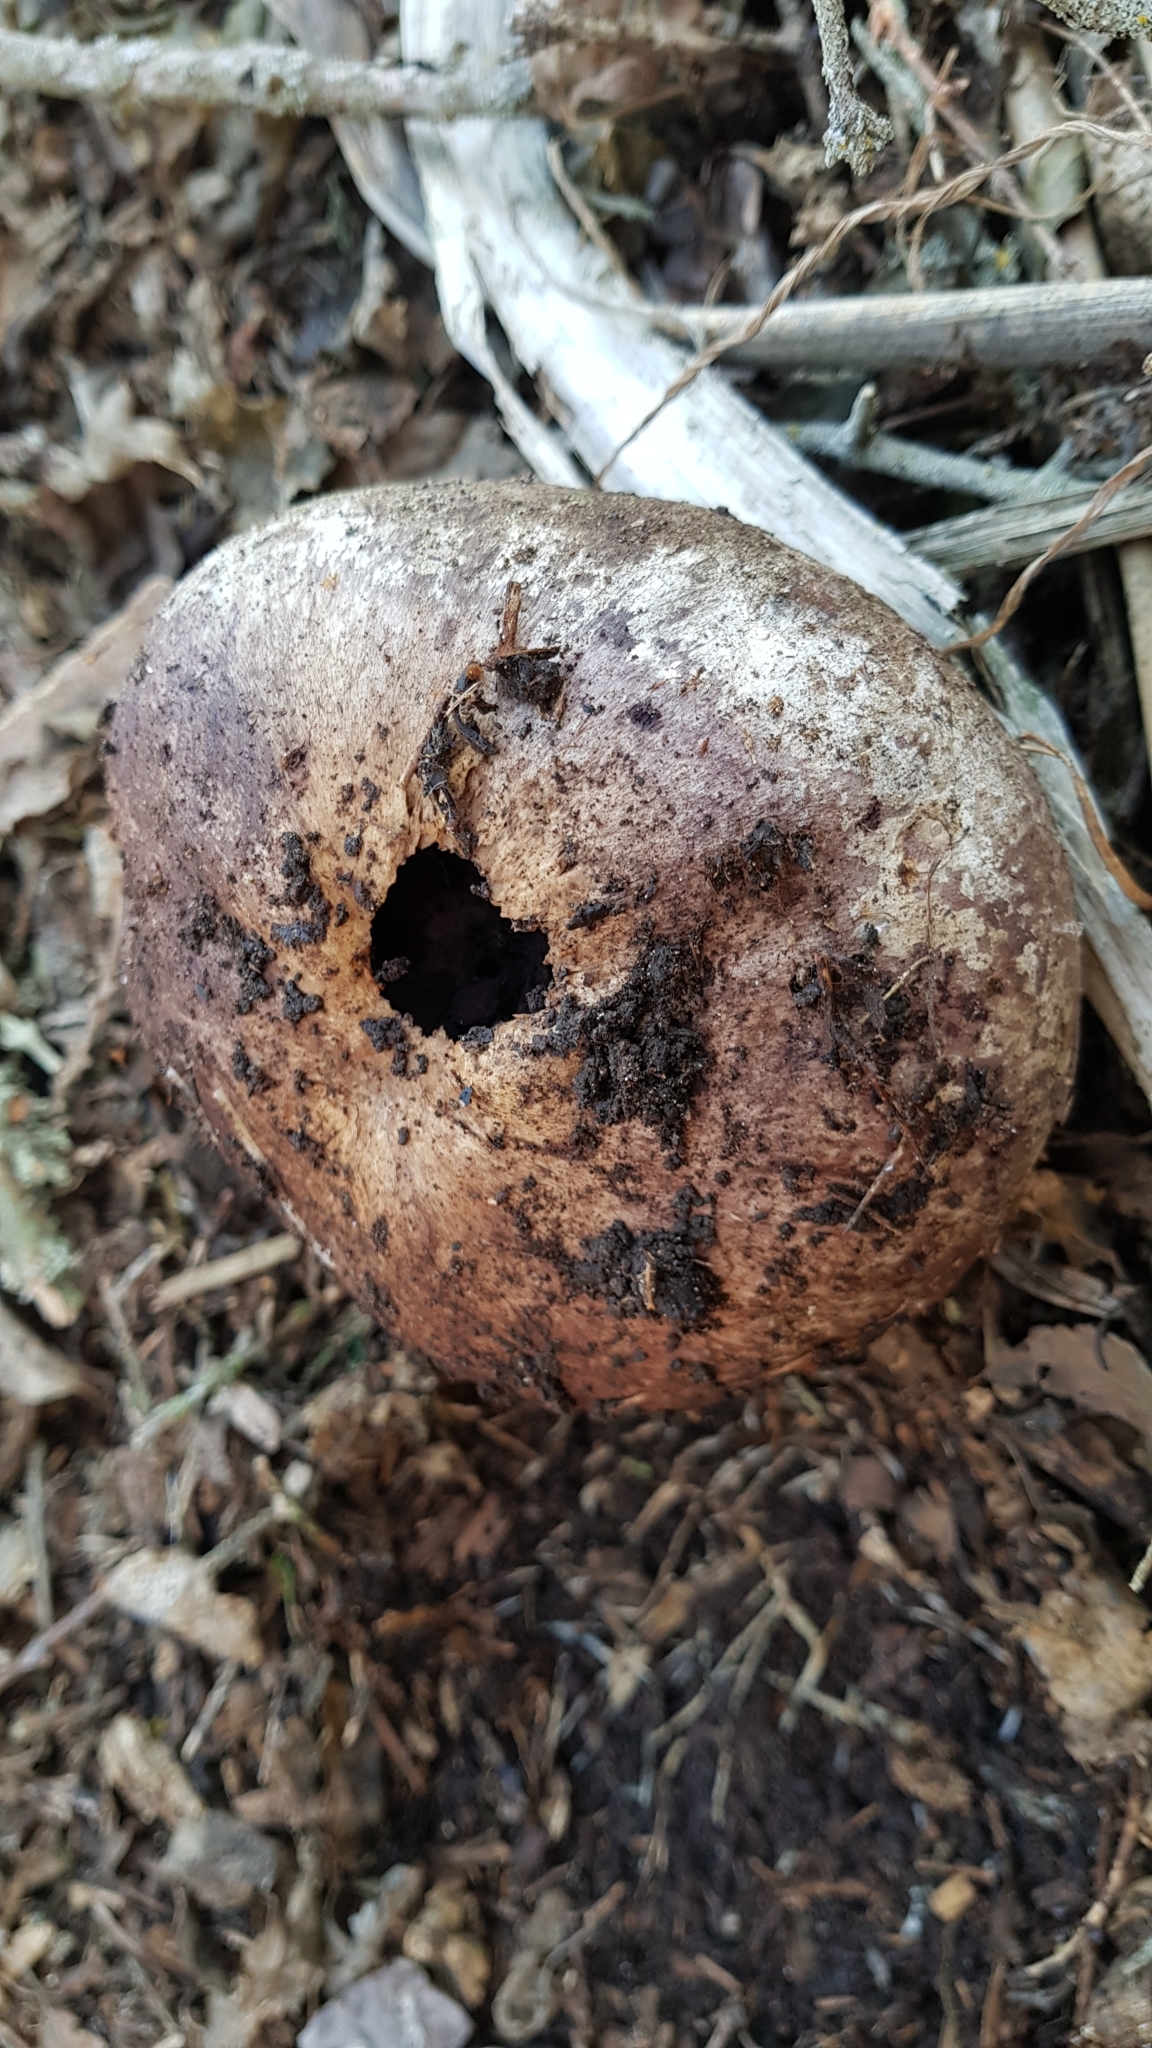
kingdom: Fungi
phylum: Basidiomycota
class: Agaricomycetes
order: Agaricales
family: Agaricaceae
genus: Mycenastrum
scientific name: Mycenastrum corium
